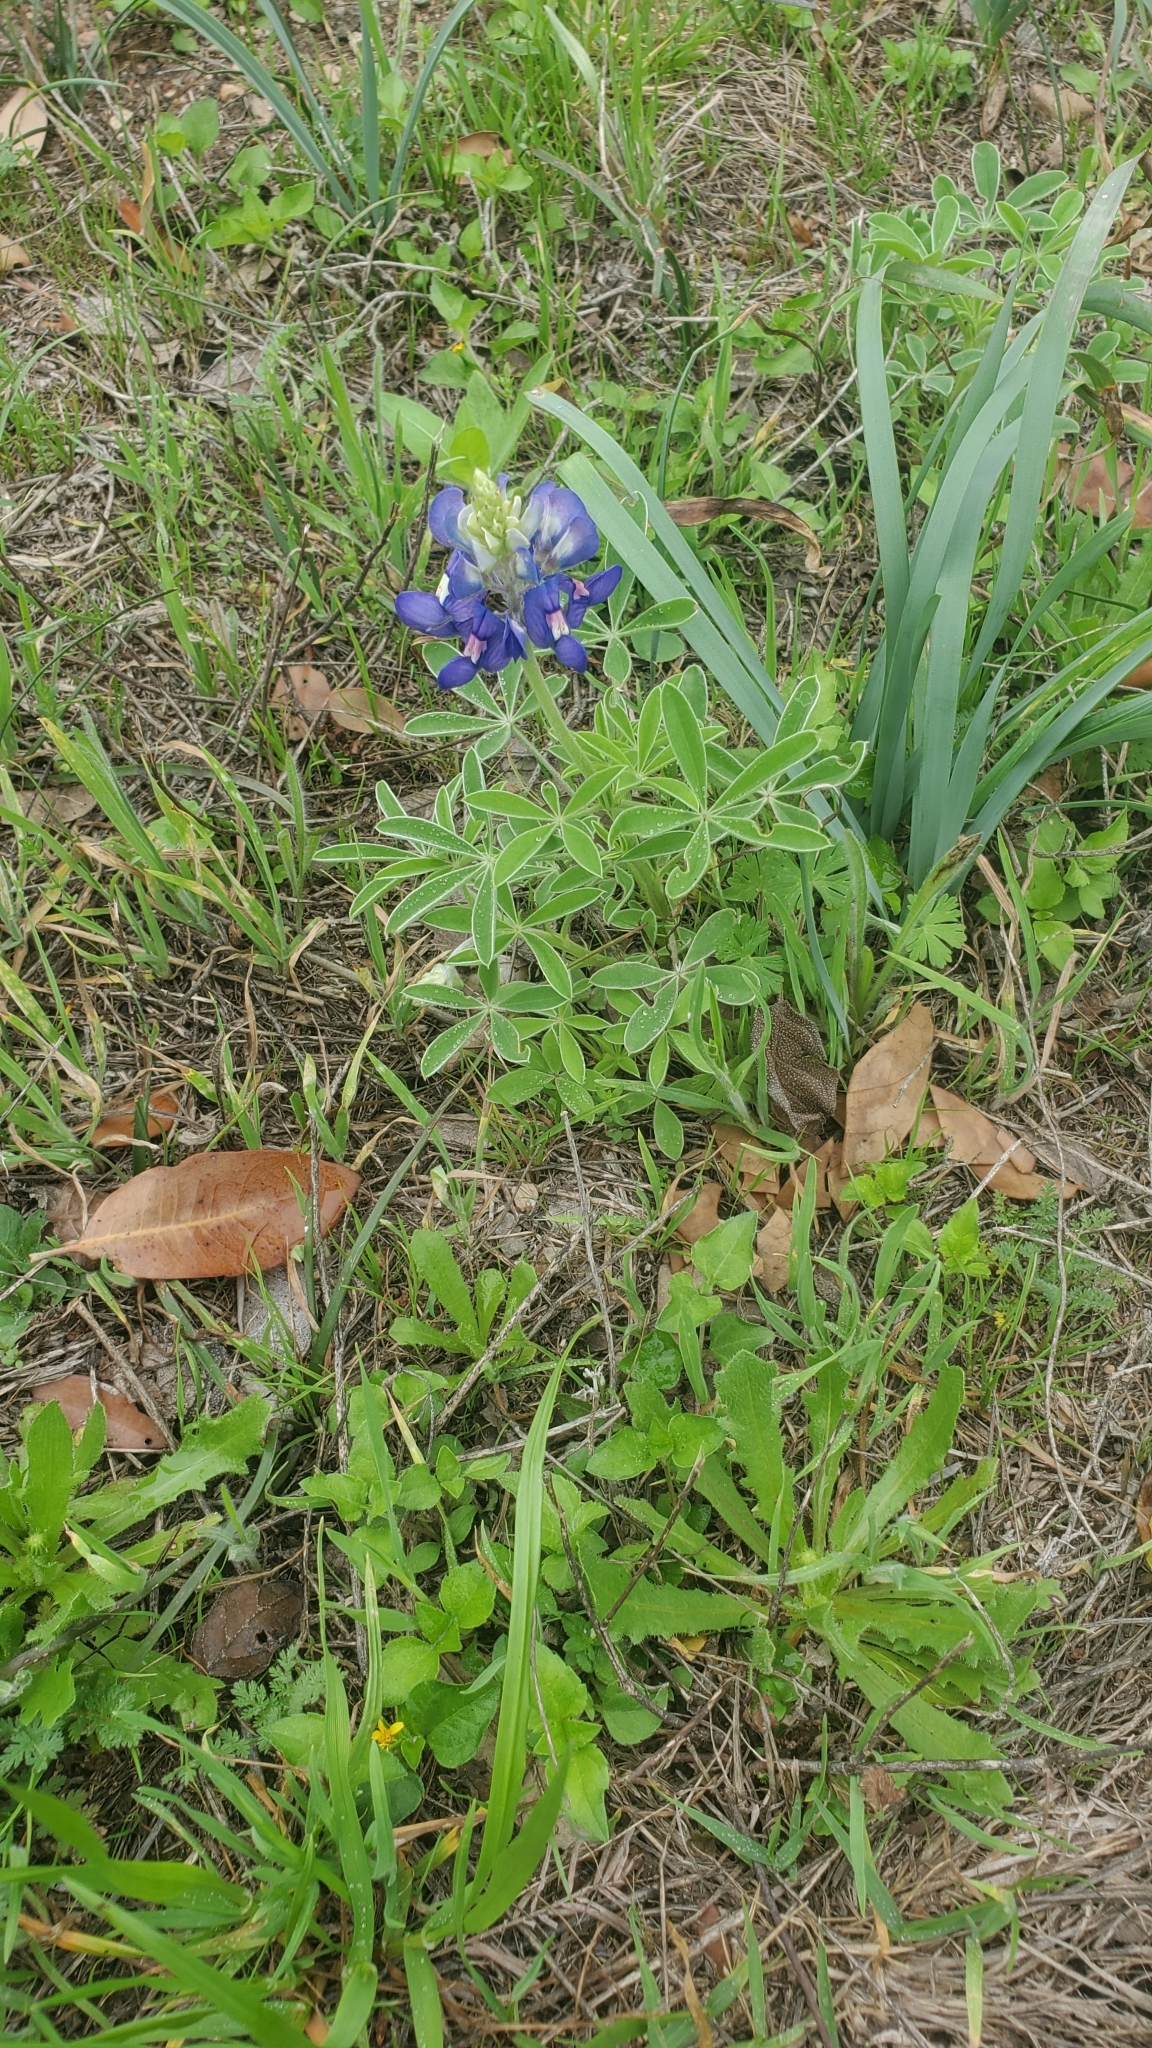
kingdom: Plantae
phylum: Tracheophyta
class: Magnoliopsida
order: Fabales
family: Fabaceae
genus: Lupinus
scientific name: Lupinus texensis
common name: Texas bluebonnet
